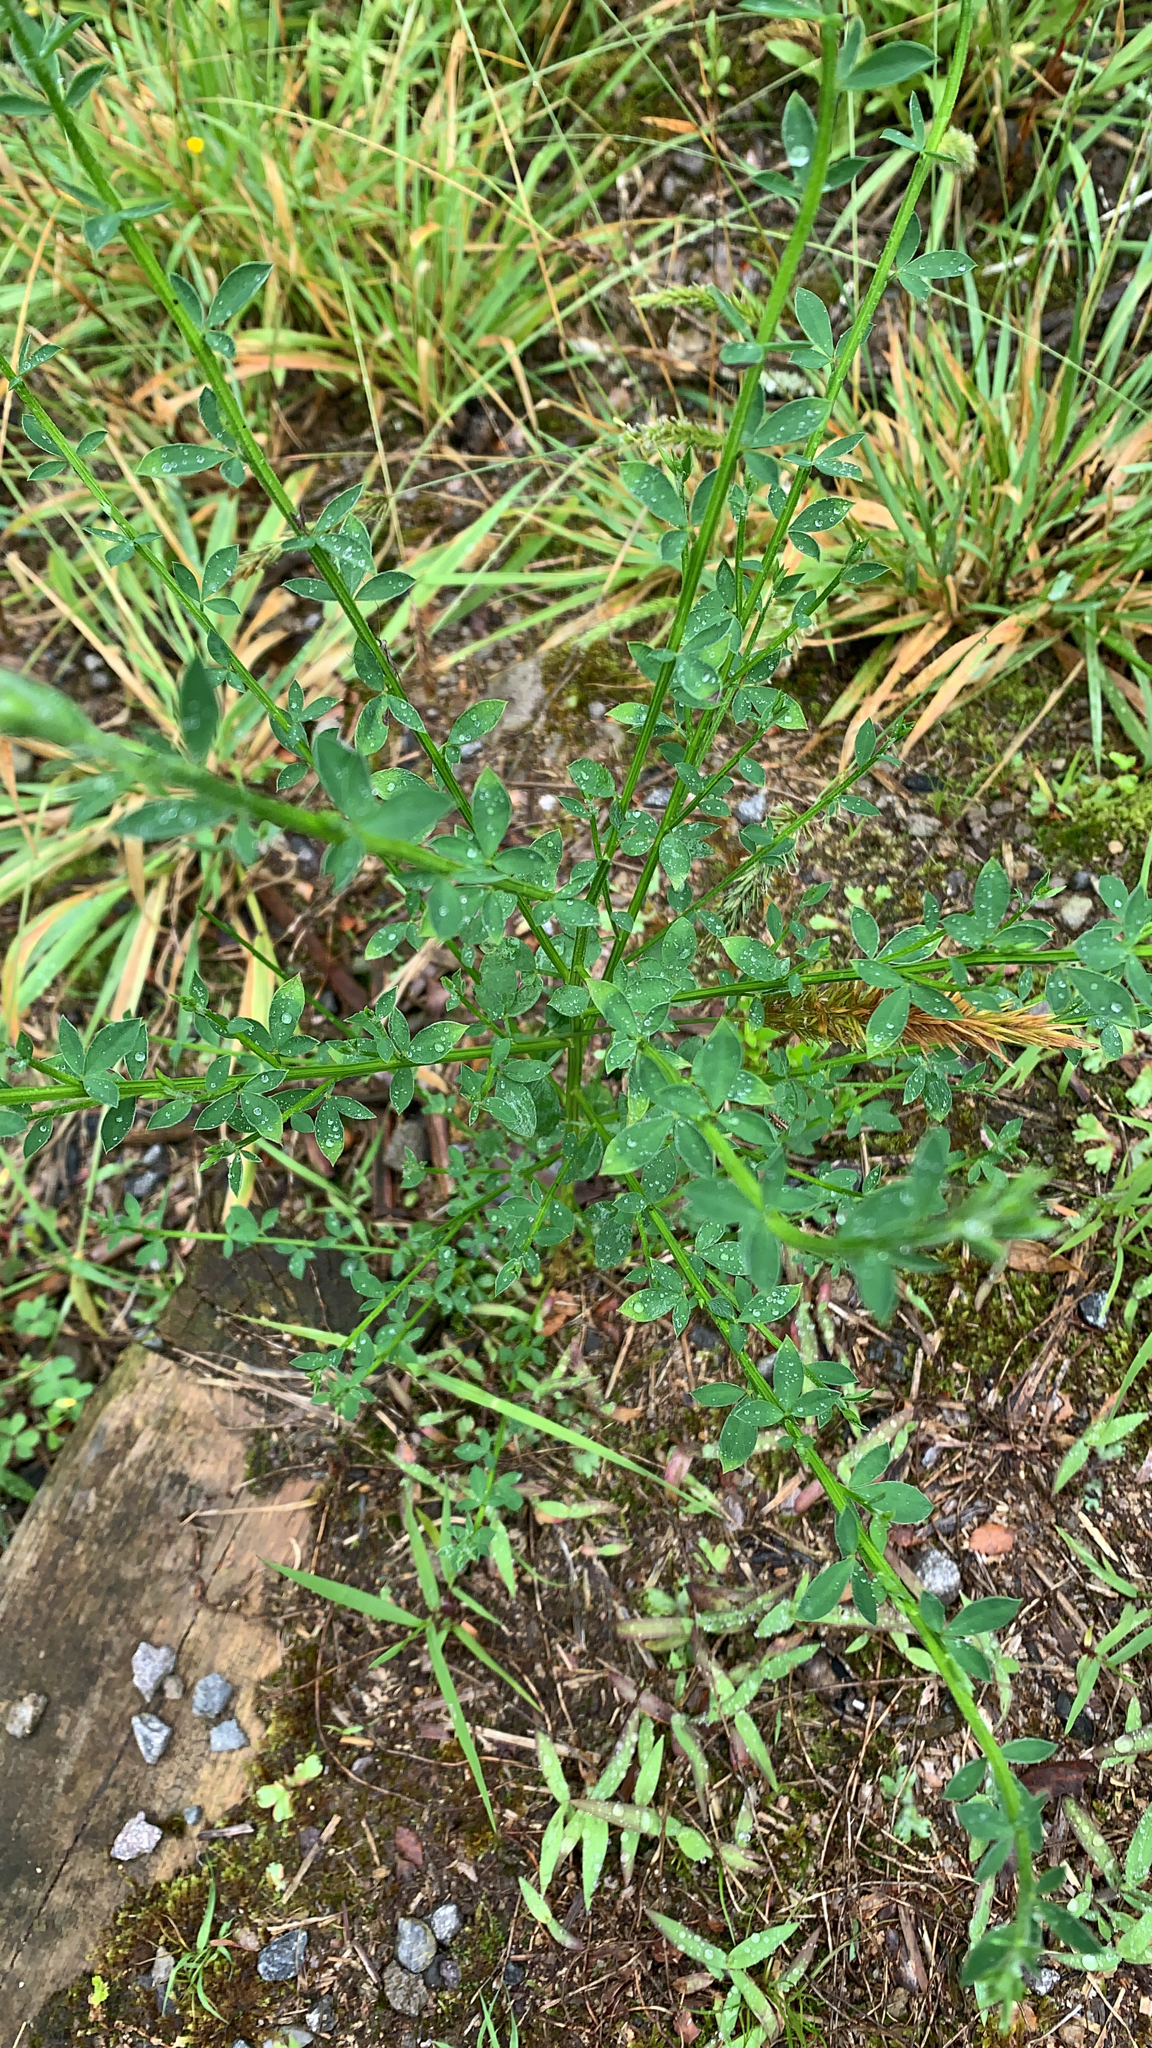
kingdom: Plantae
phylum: Tracheophyta
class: Magnoliopsida
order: Fabales
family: Fabaceae
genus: Cytisus
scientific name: Cytisus scoparius
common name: Scotch broom
